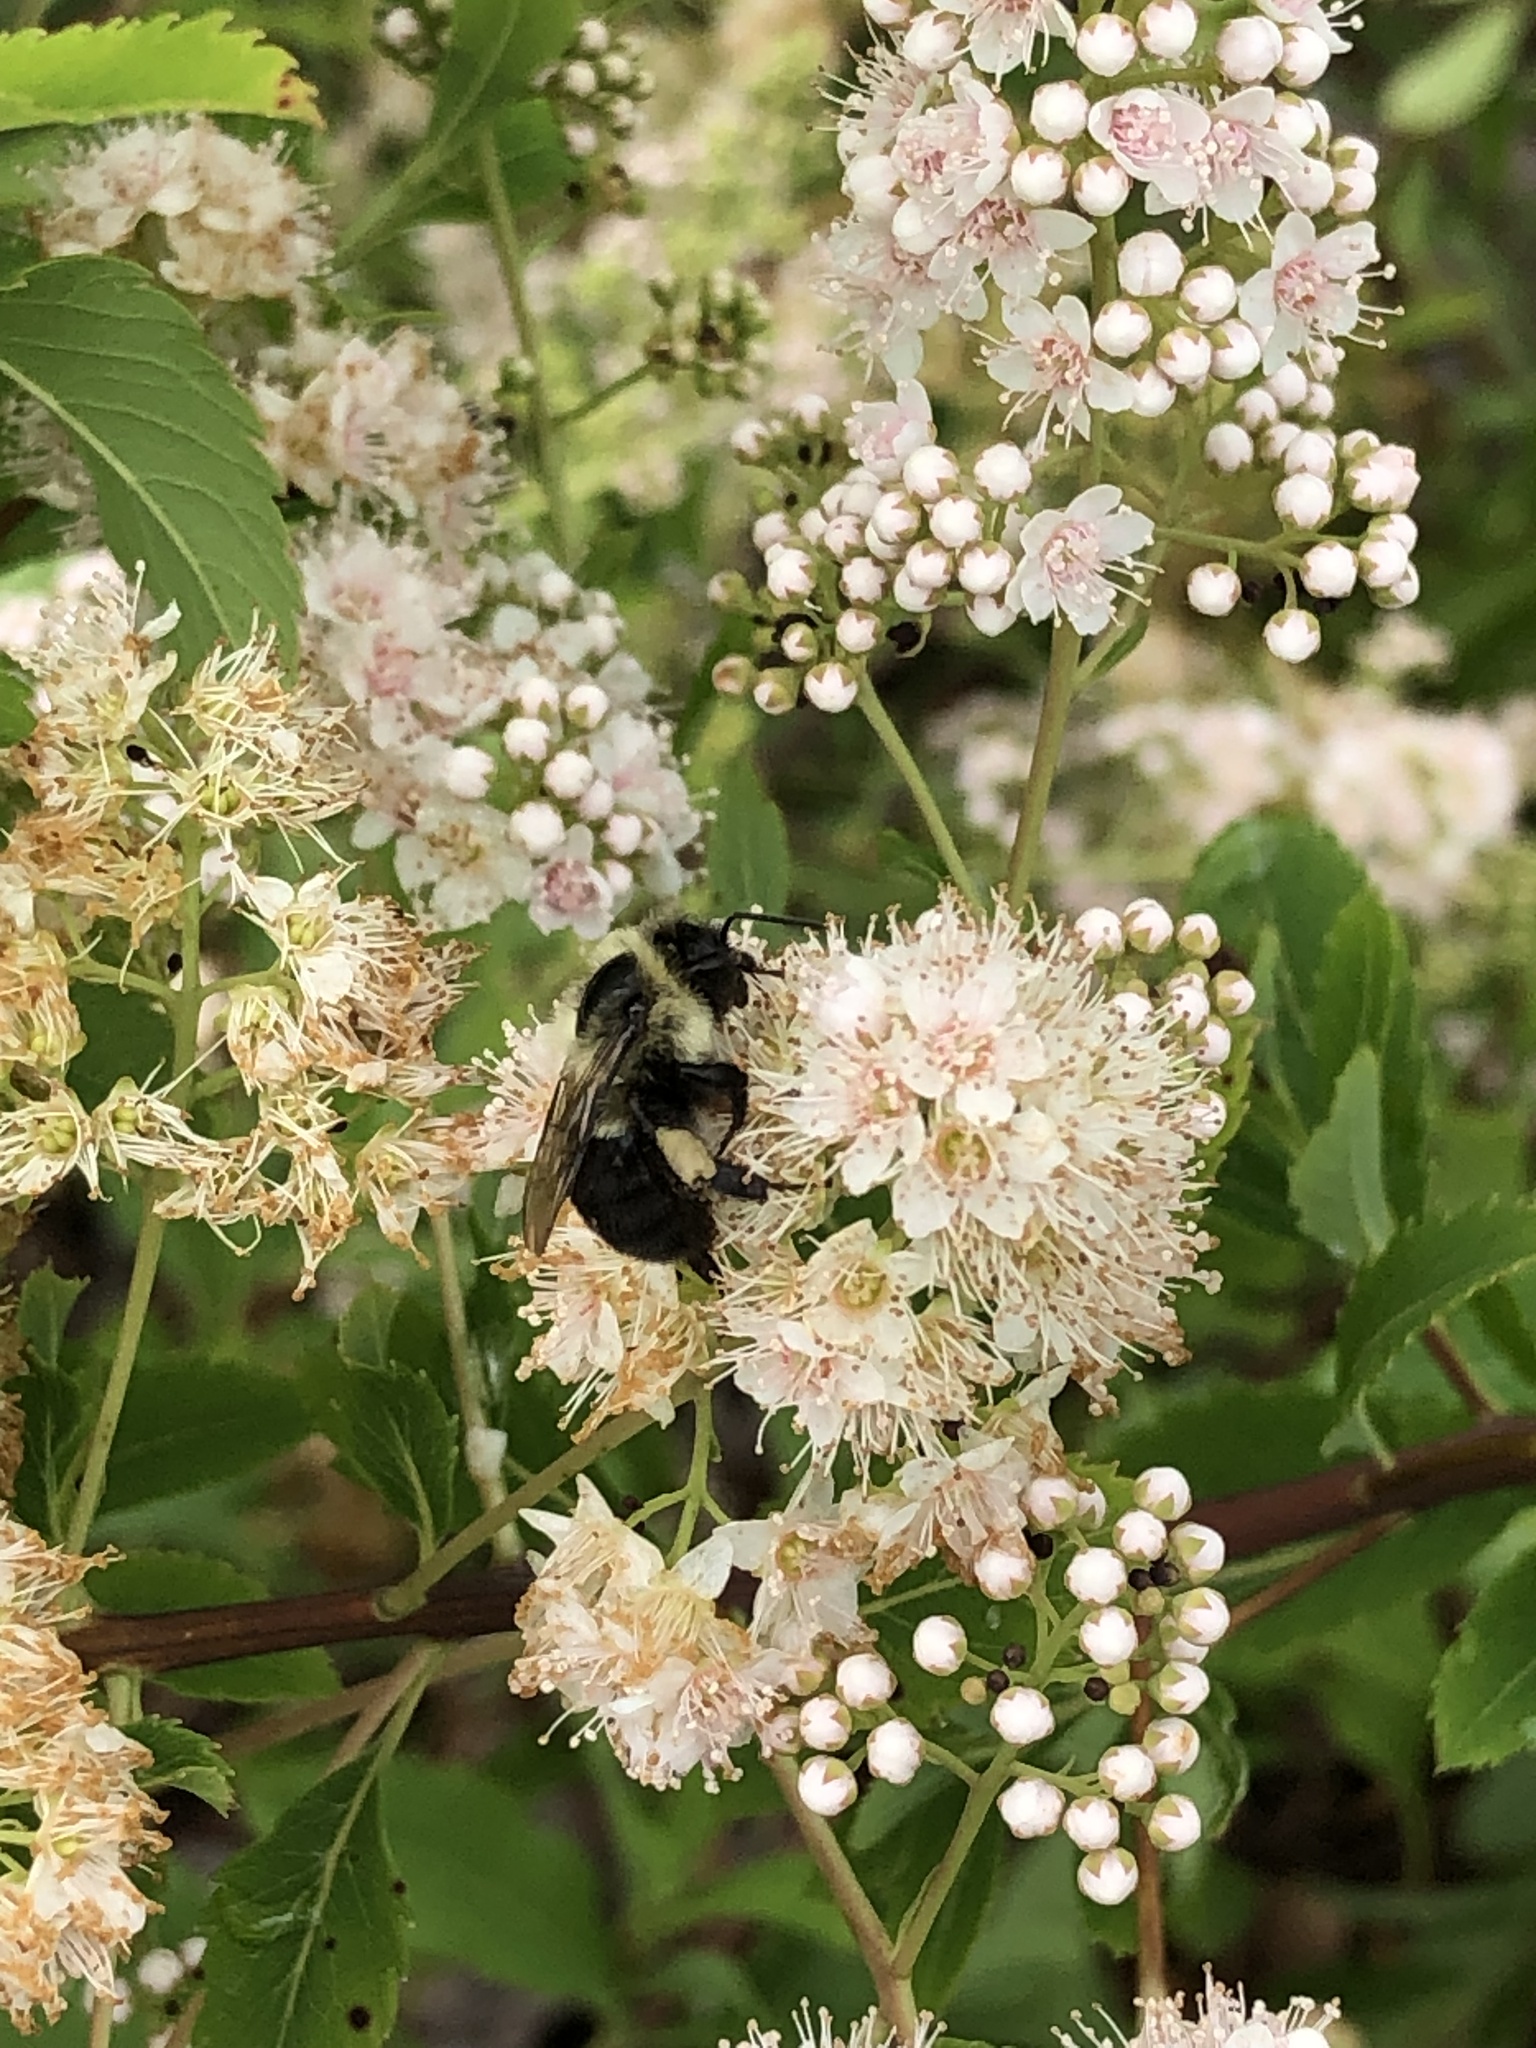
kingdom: Animalia
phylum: Arthropoda
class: Insecta
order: Hymenoptera
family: Apidae
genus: Bombus
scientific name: Bombus impatiens
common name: Common eastern bumble bee
